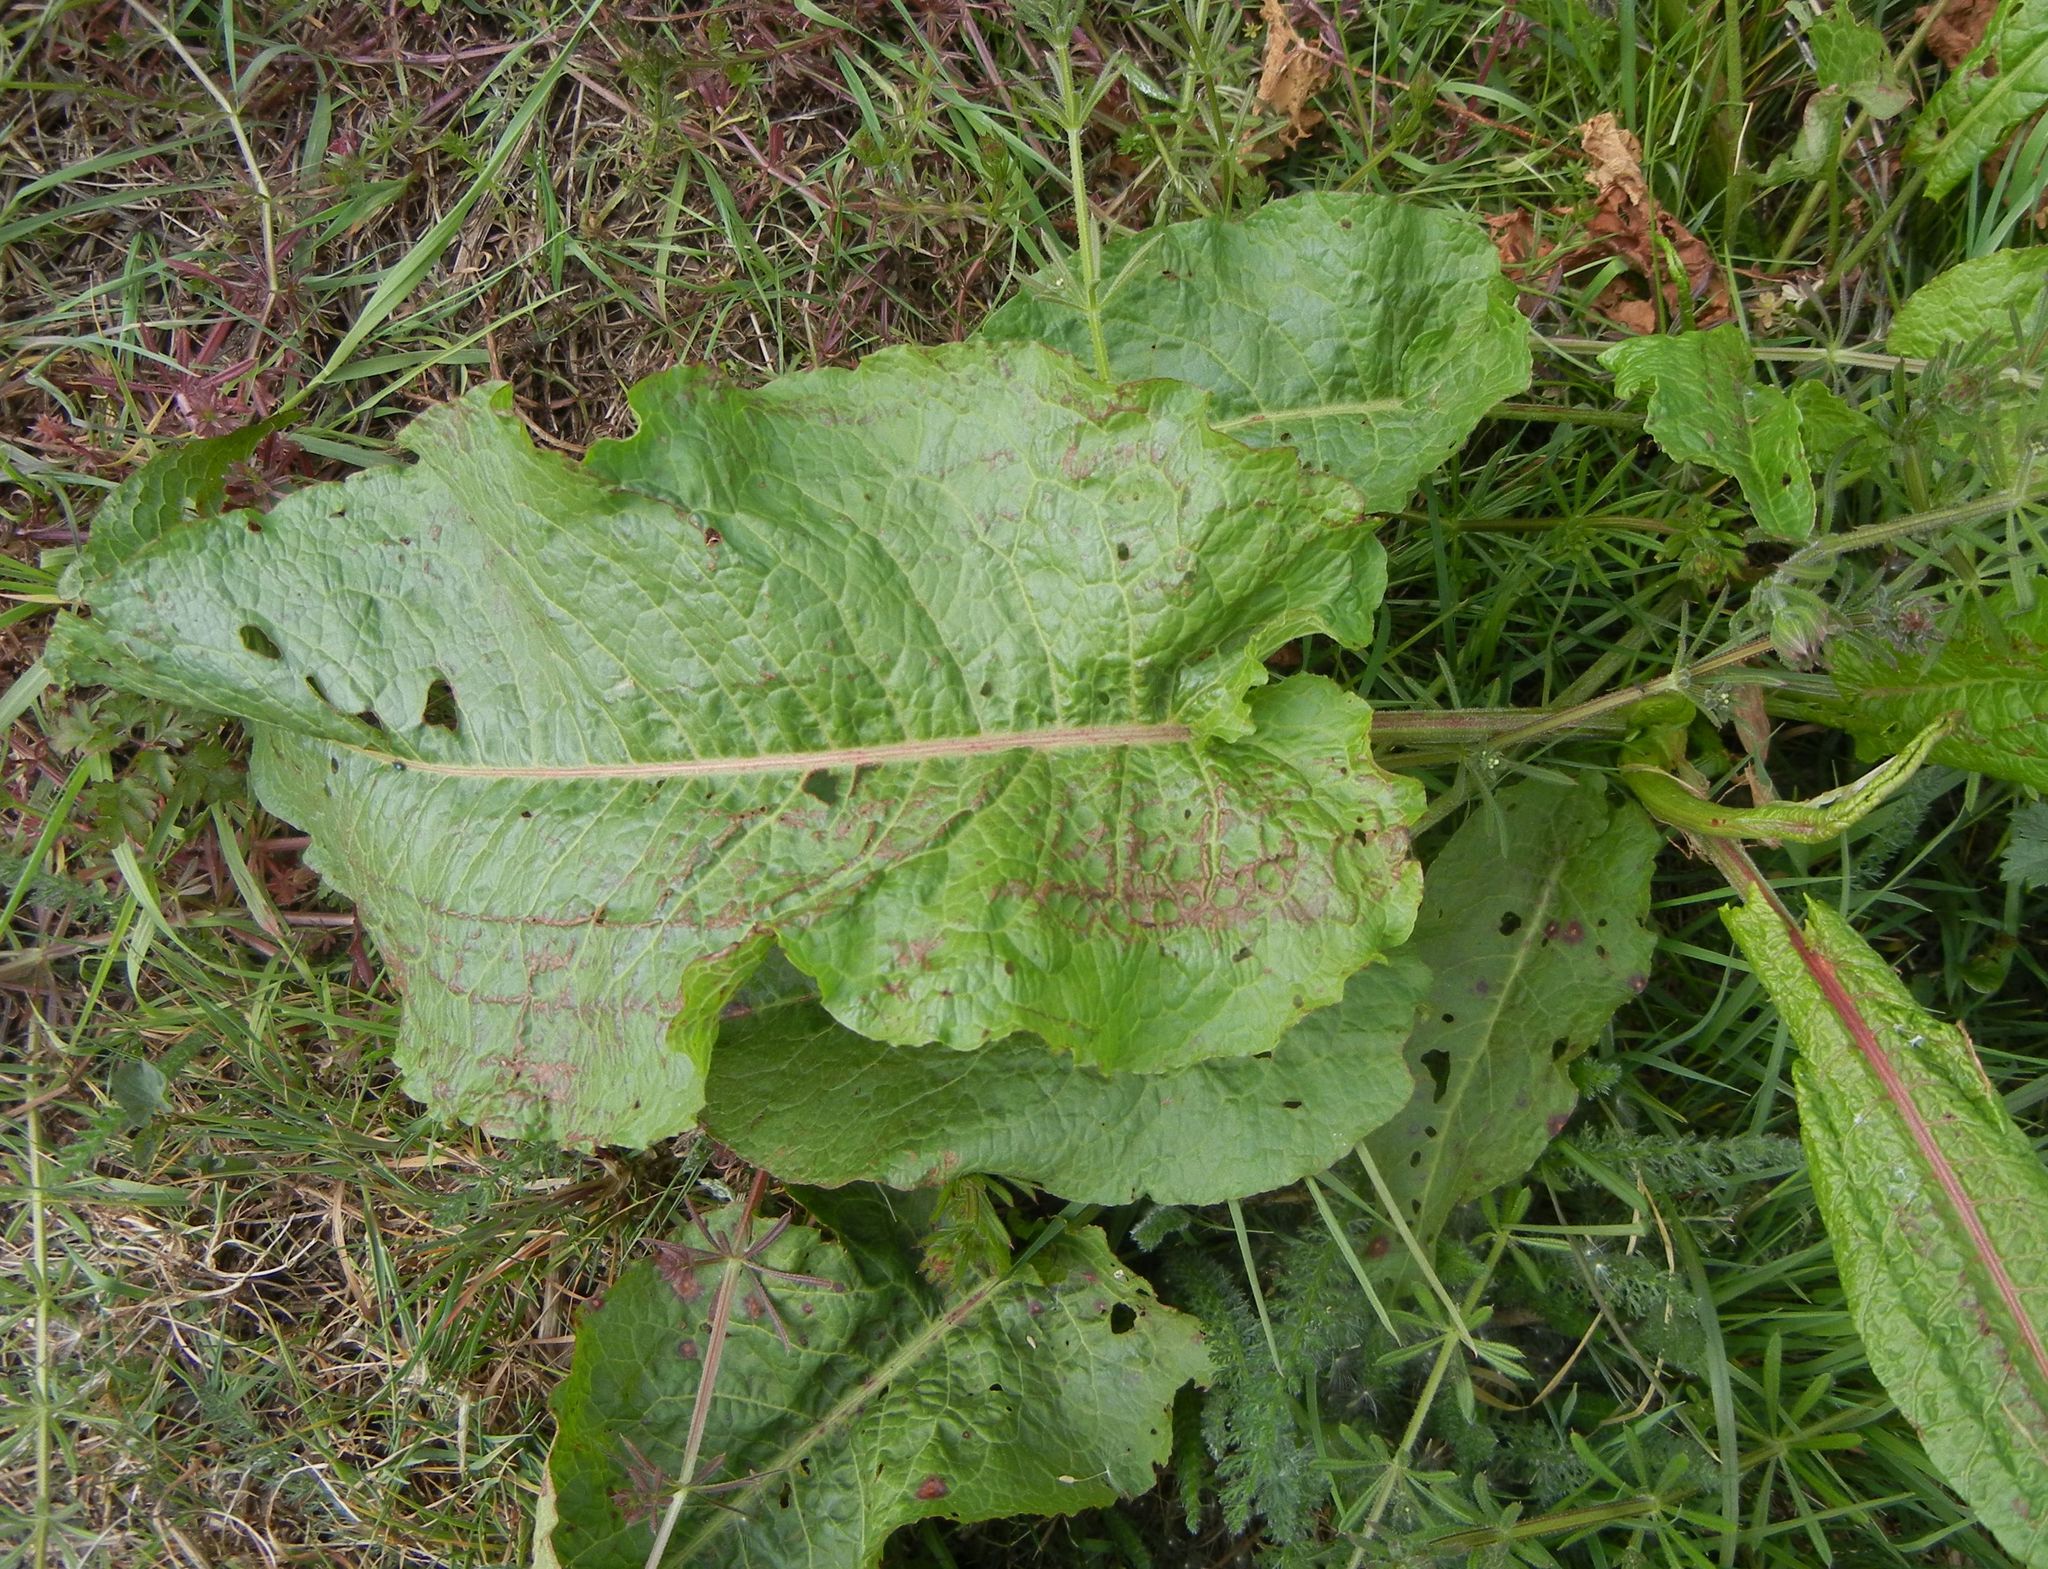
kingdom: Plantae
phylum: Tracheophyta
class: Magnoliopsida
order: Caryophyllales
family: Polygonaceae
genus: Rumex
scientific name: Rumex obtusifolius
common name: Bitter dock
